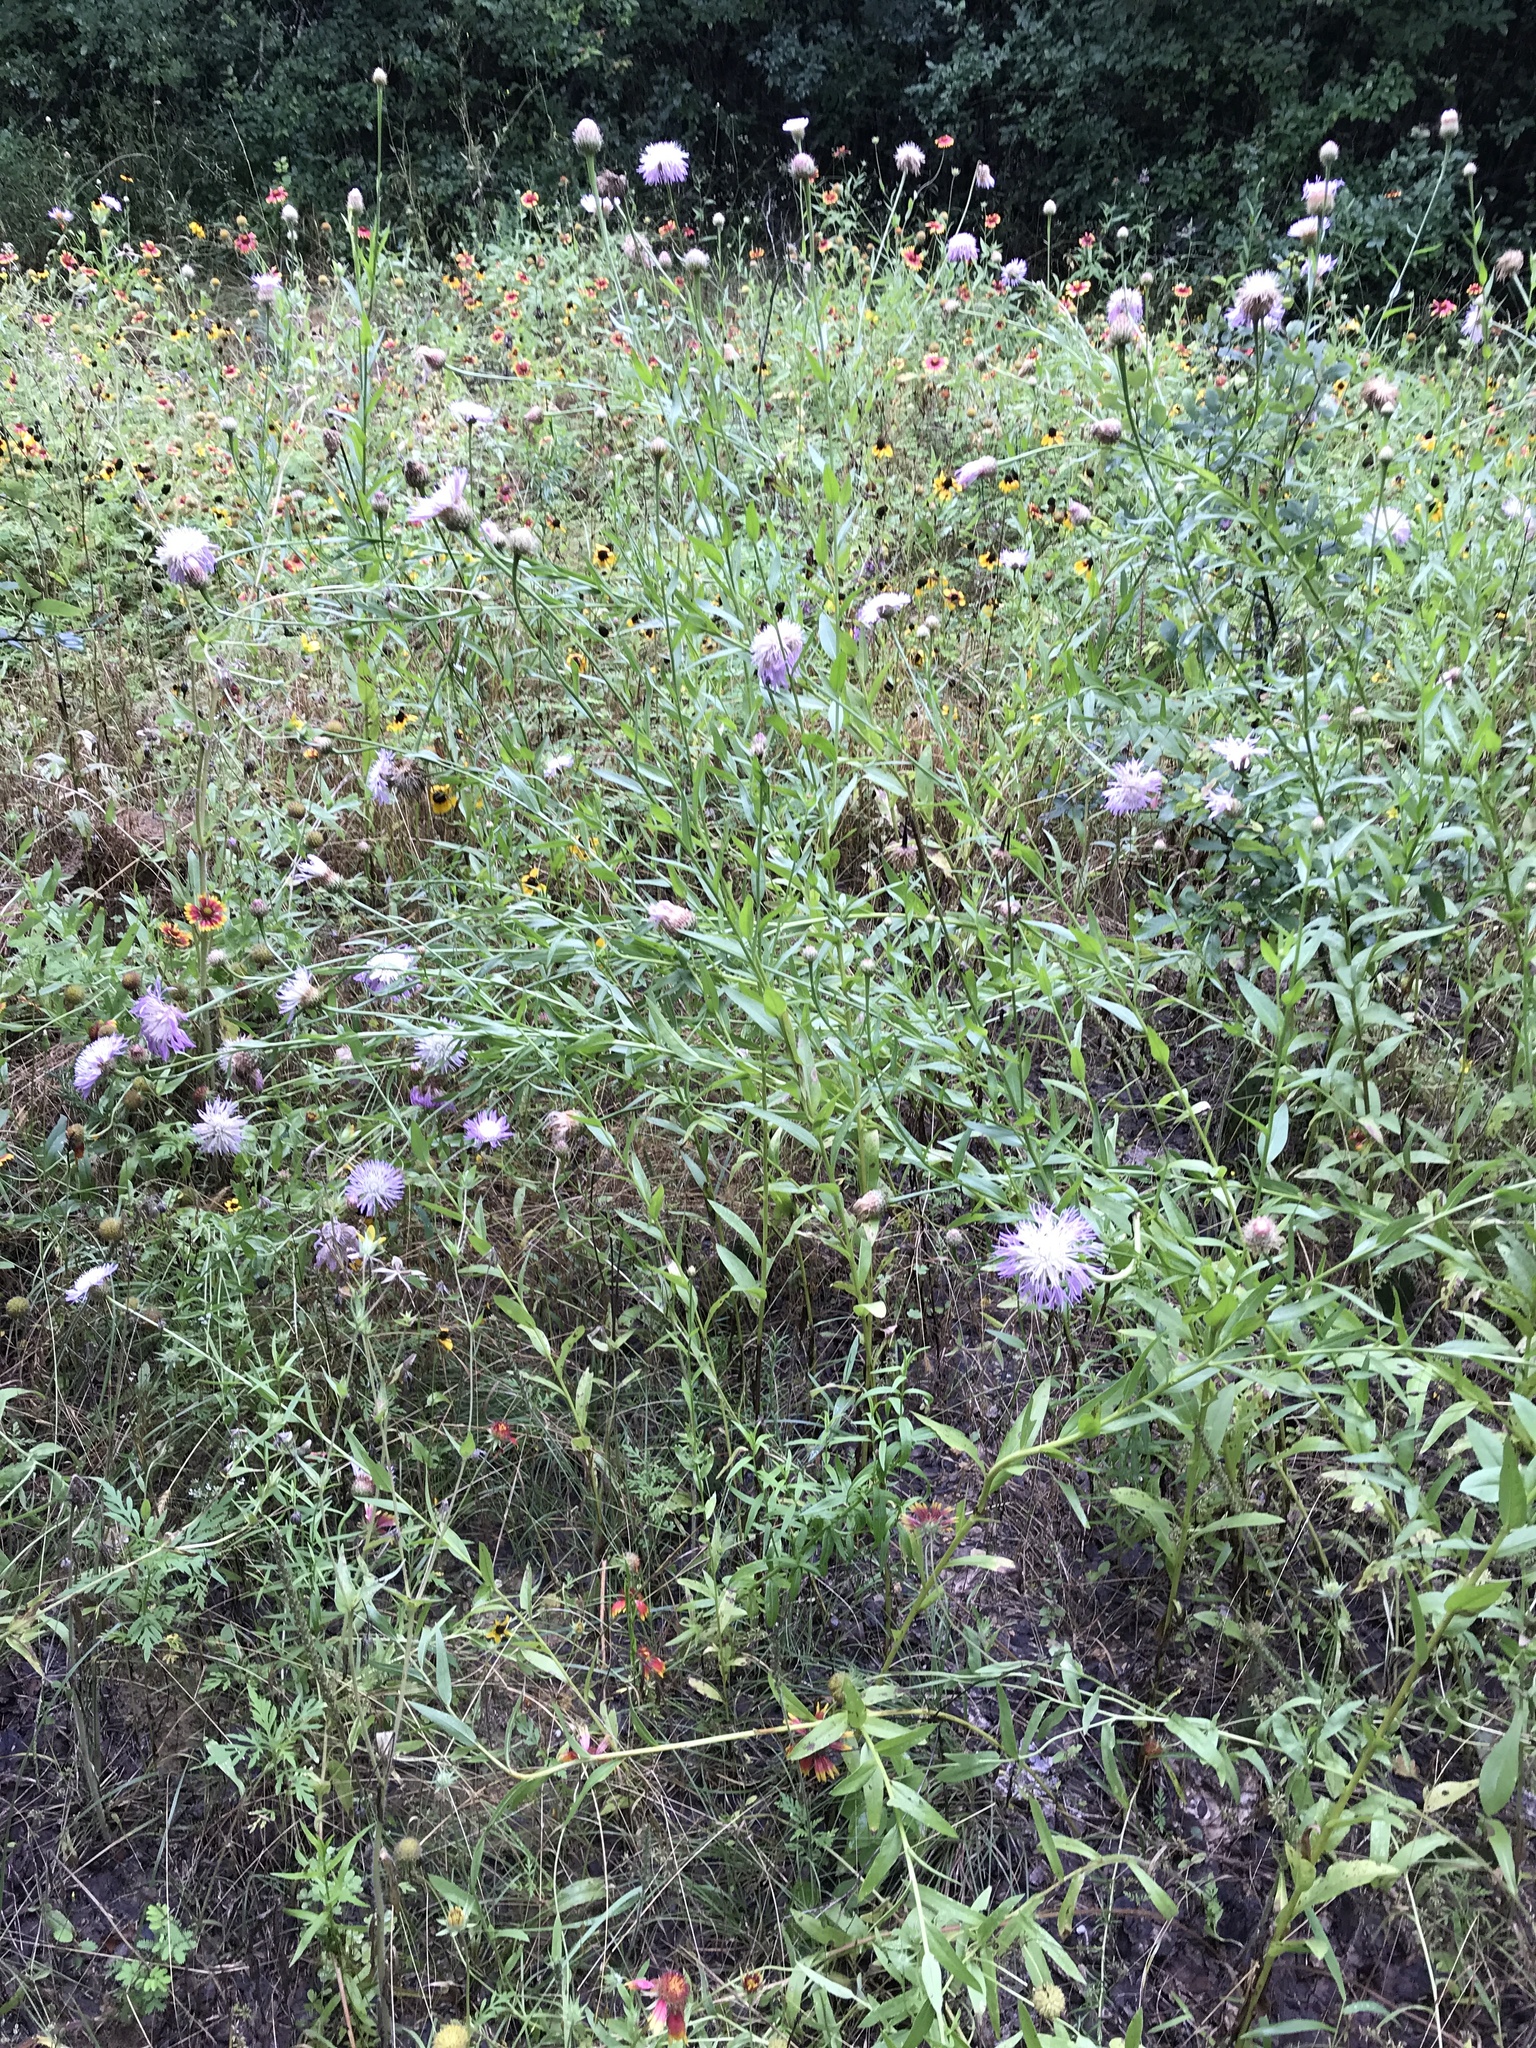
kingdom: Plantae
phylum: Tracheophyta
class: Magnoliopsida
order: Asterales
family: Asteraceae
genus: Plectocephalus
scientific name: Plectocephalus americanus
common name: American basket-flower
